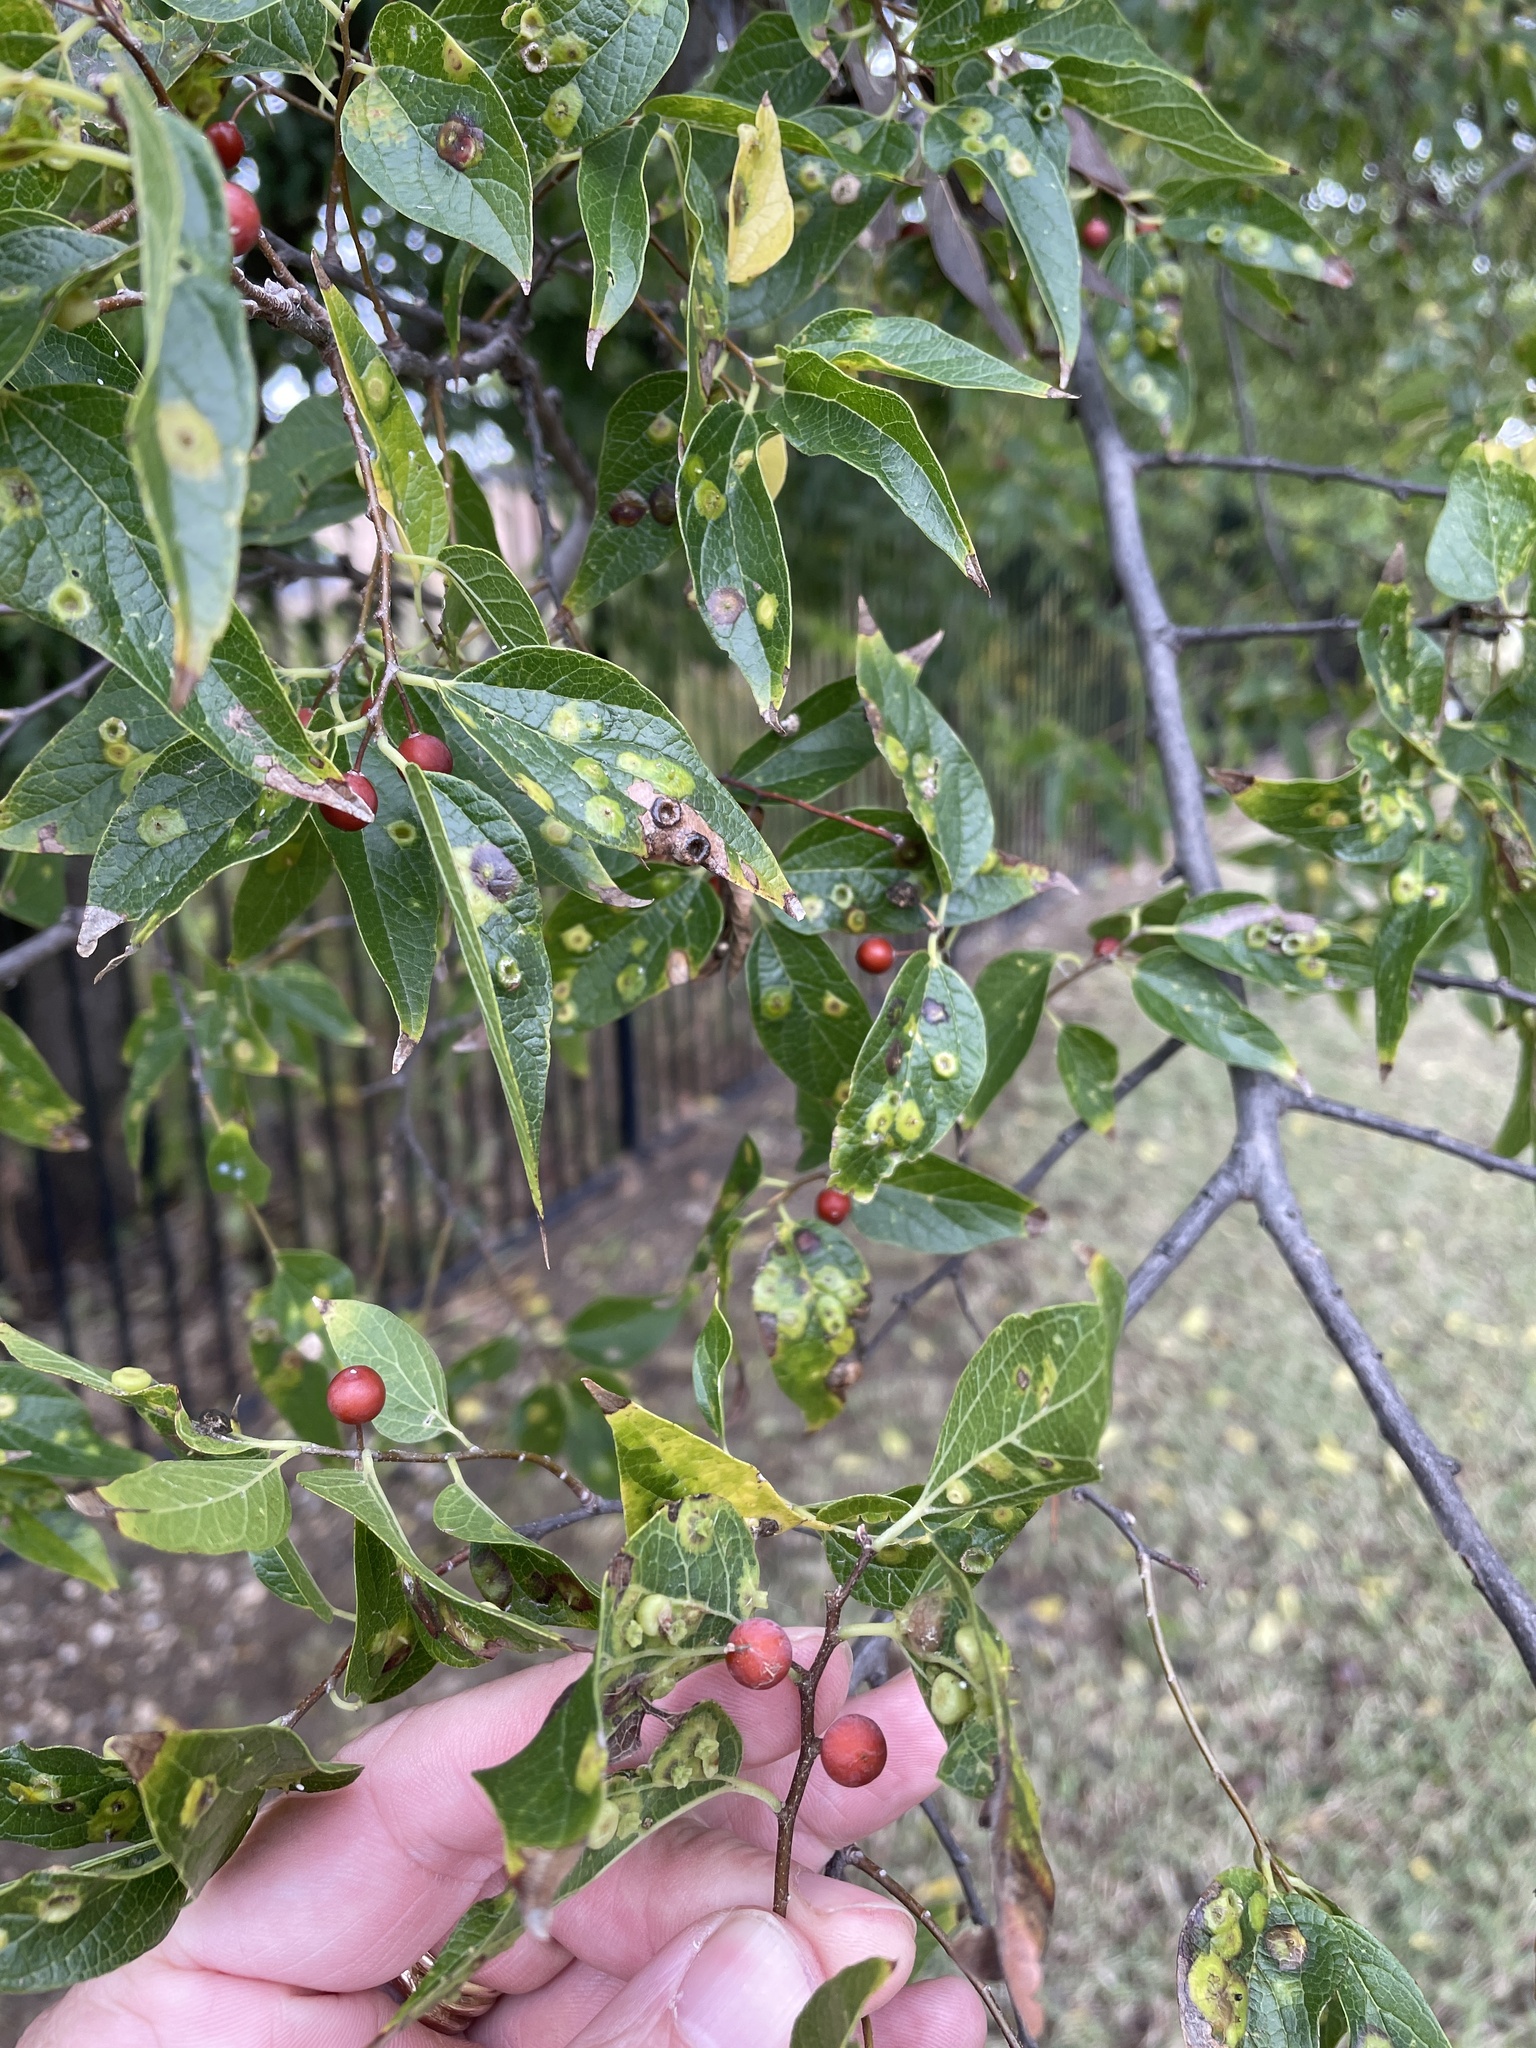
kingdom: Plantae
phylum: Tracheophyta
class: Magnoliopsida
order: Rosales
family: Cannabaceae
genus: Celtis
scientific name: Celtis laevigata
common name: Sugarberry
